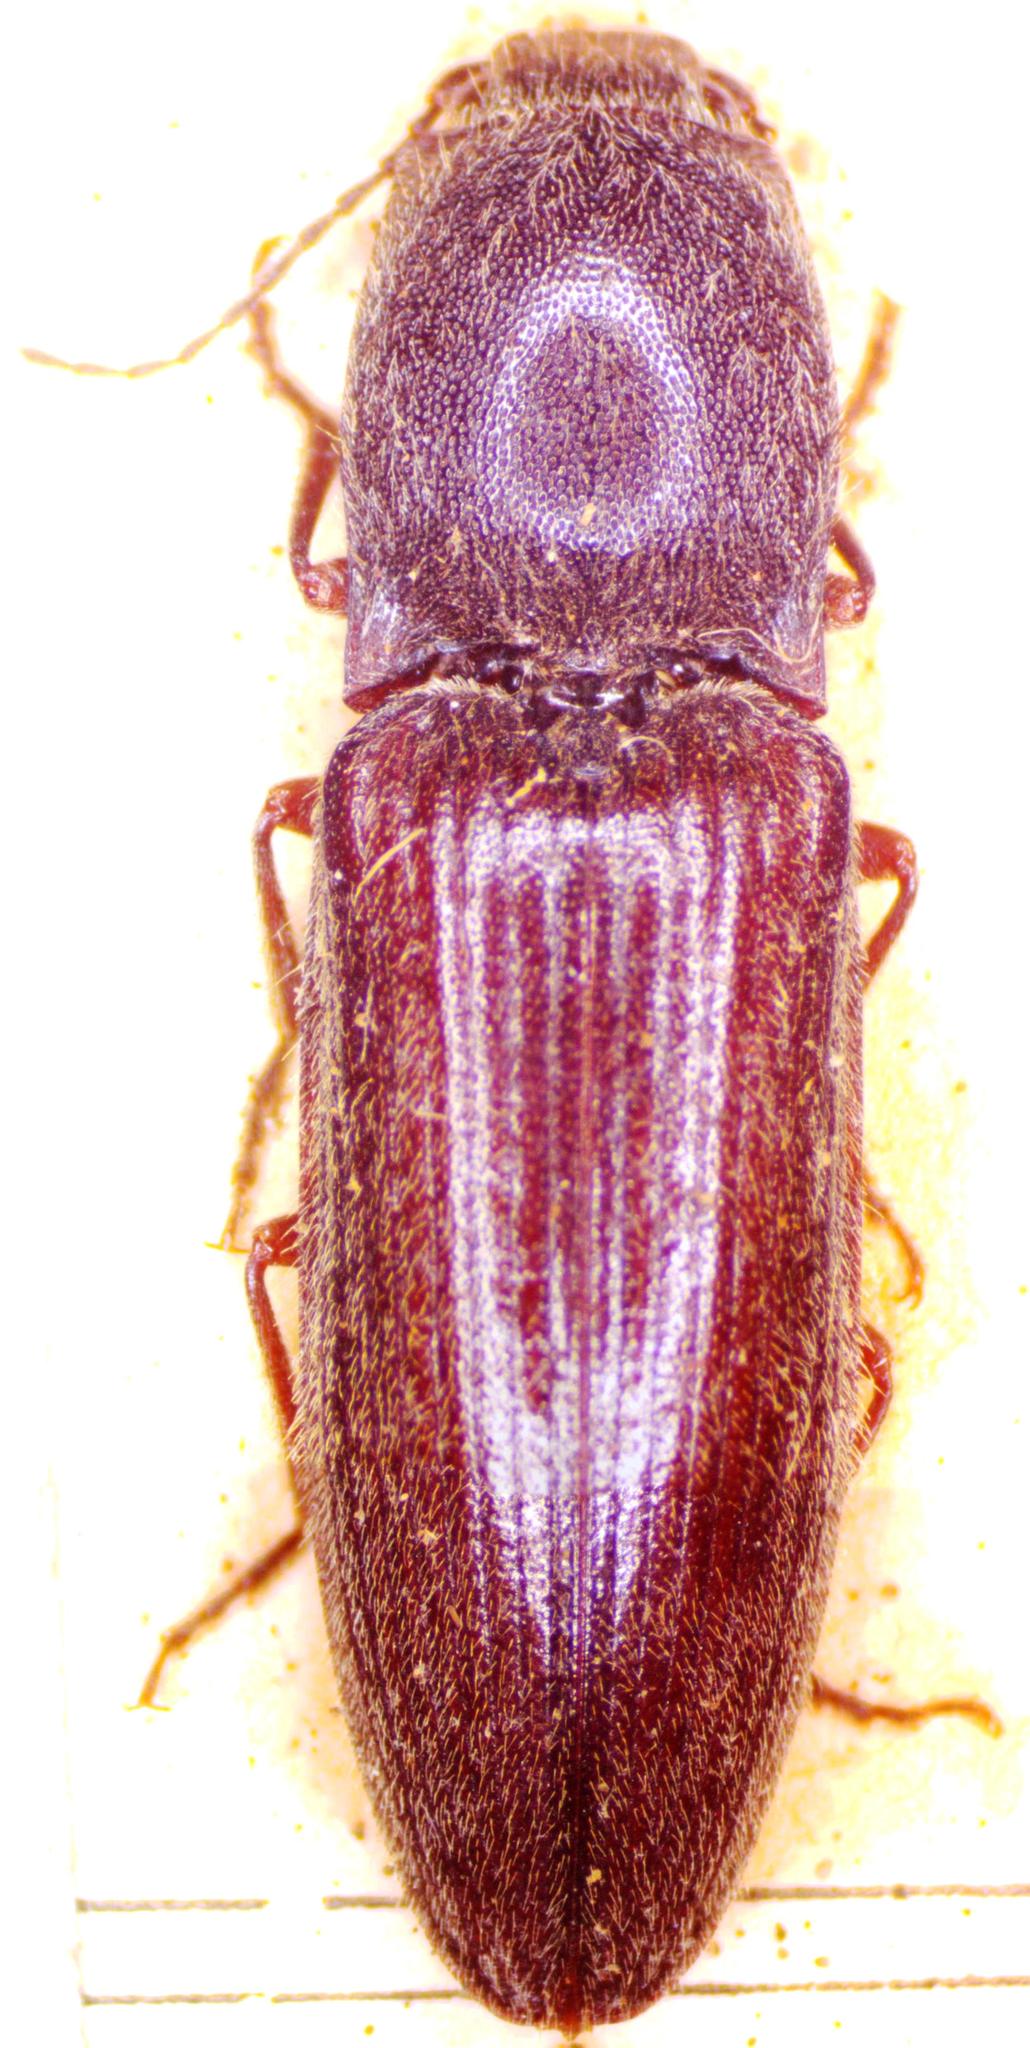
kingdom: Animalia
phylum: Arthropoda
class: Insecta
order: Coleoptera
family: Elateridae
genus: Athous
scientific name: Athous haemorrhoidalis
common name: Red-brown click beetle
